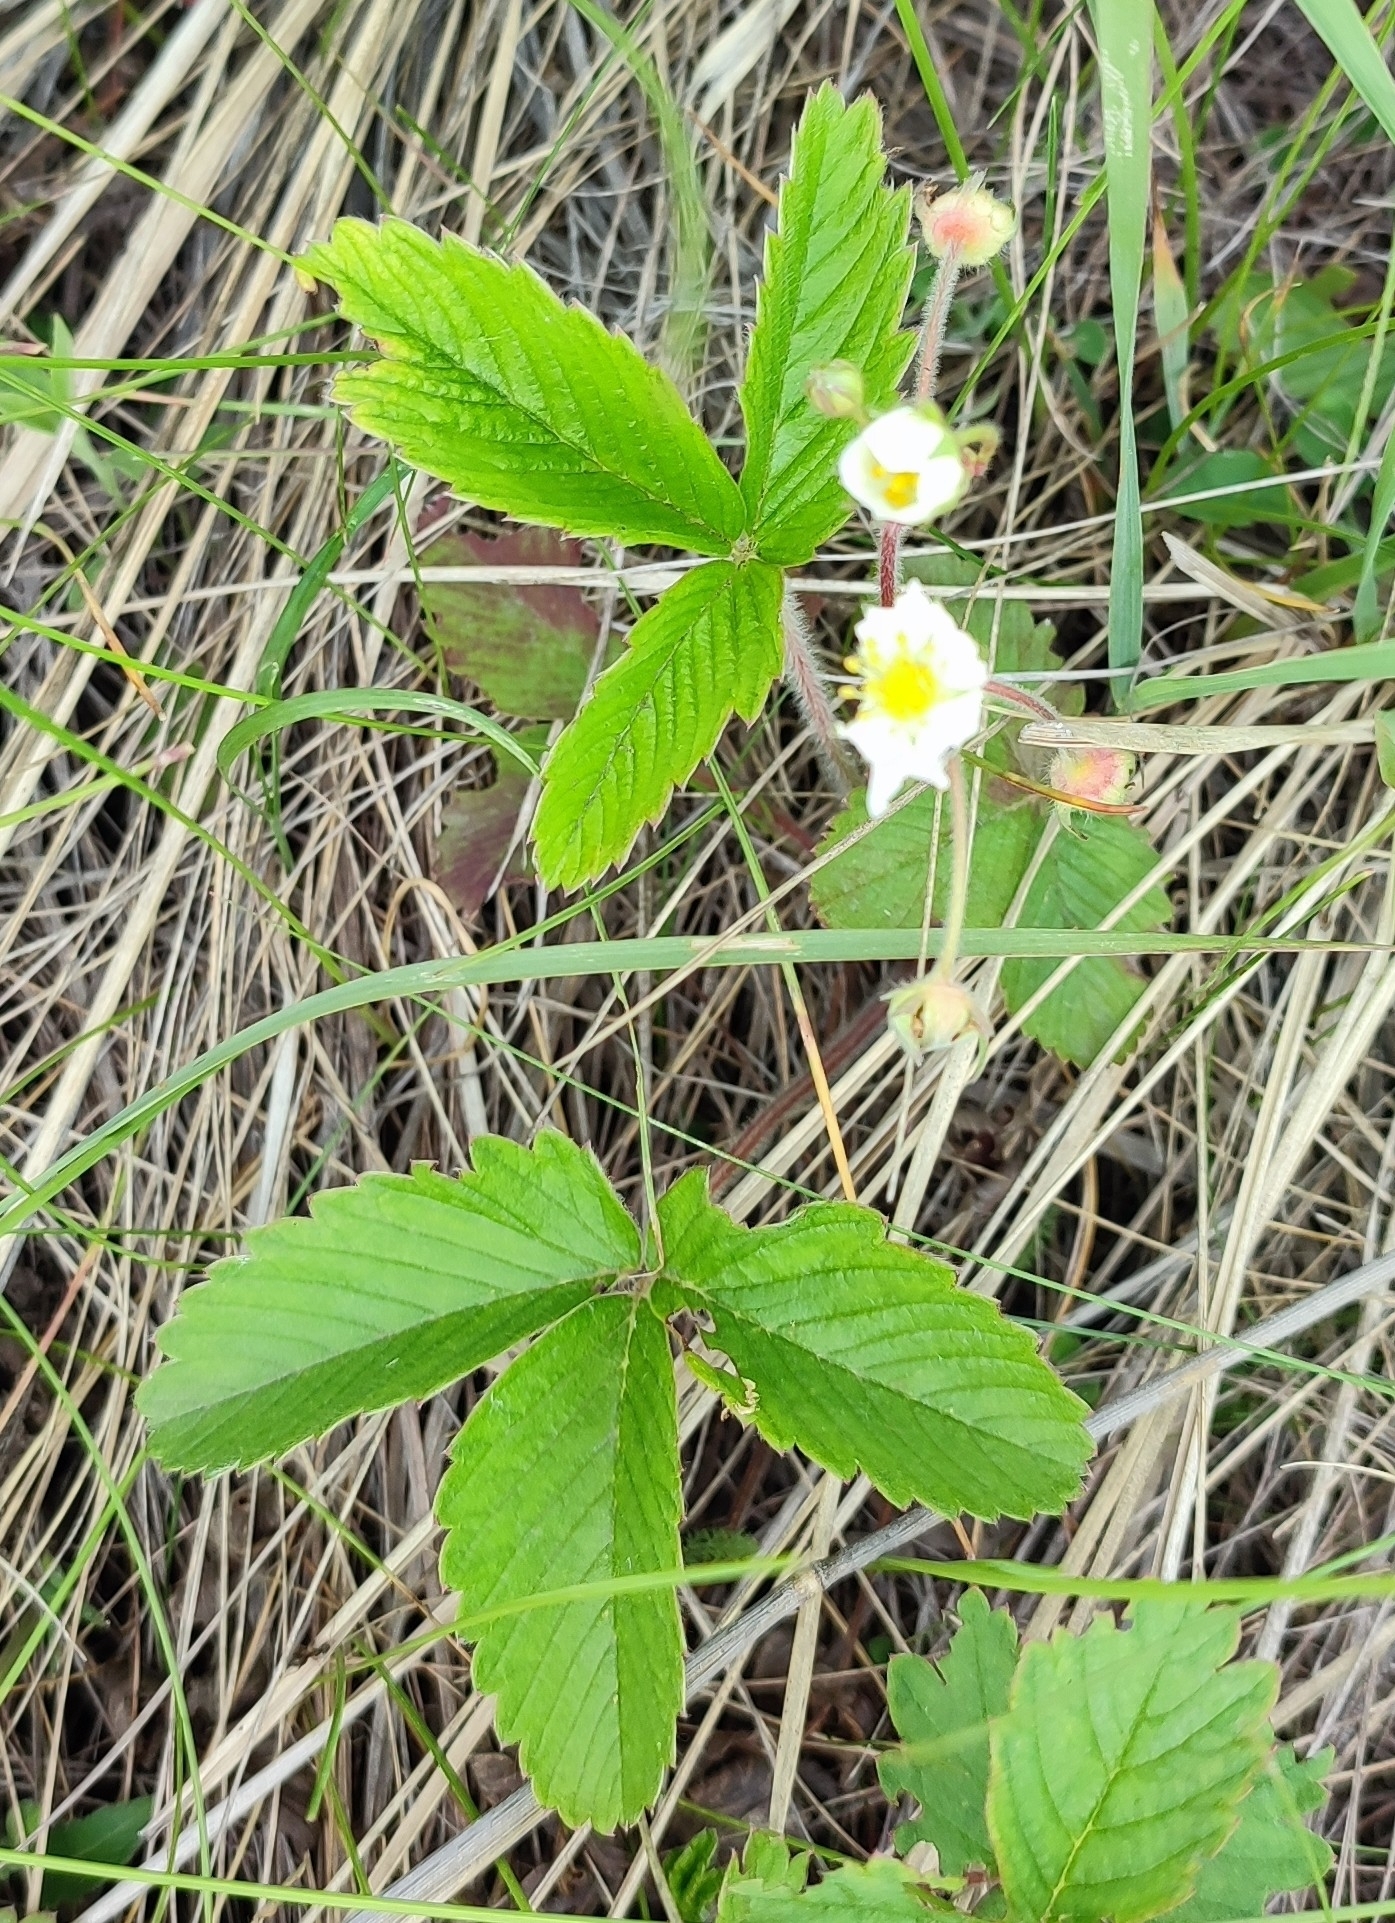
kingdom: Plantae
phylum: Tracheophyta
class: Magnoliopsida
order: Rosales
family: Rosaceae
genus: Fragaria
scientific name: Fragaria viridis
